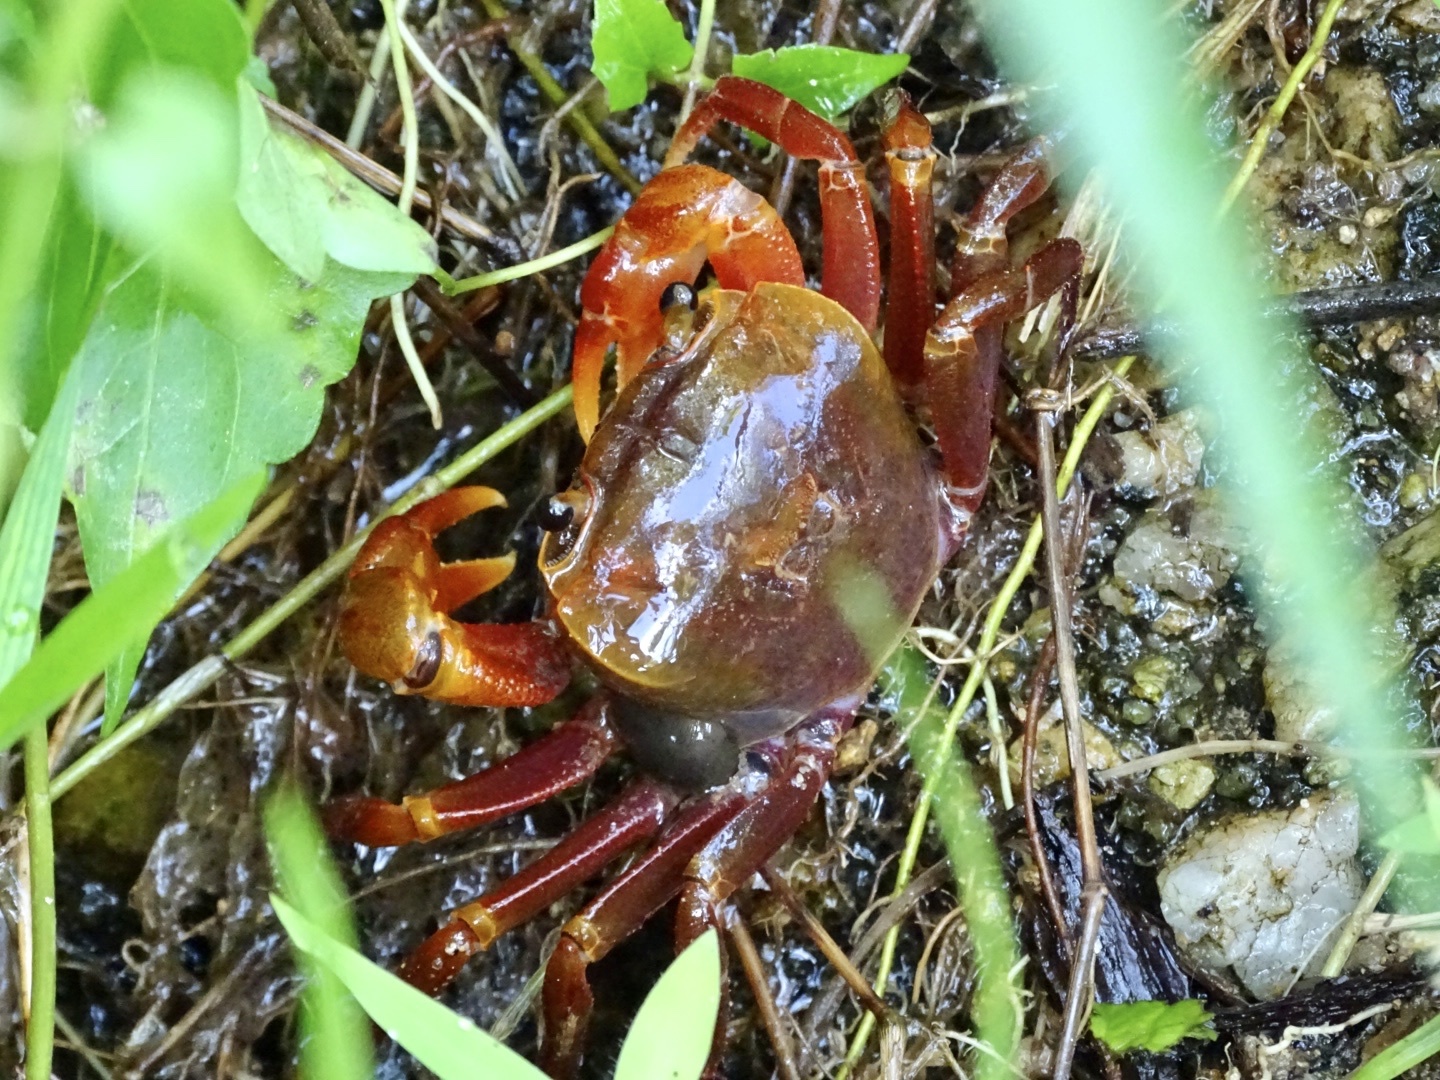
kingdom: Animalia
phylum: Arthropoda
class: Malacostraca
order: Decapoda
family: Potamidae
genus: Nanhaipotamon
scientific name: Nanhaipotamon hongkongense
